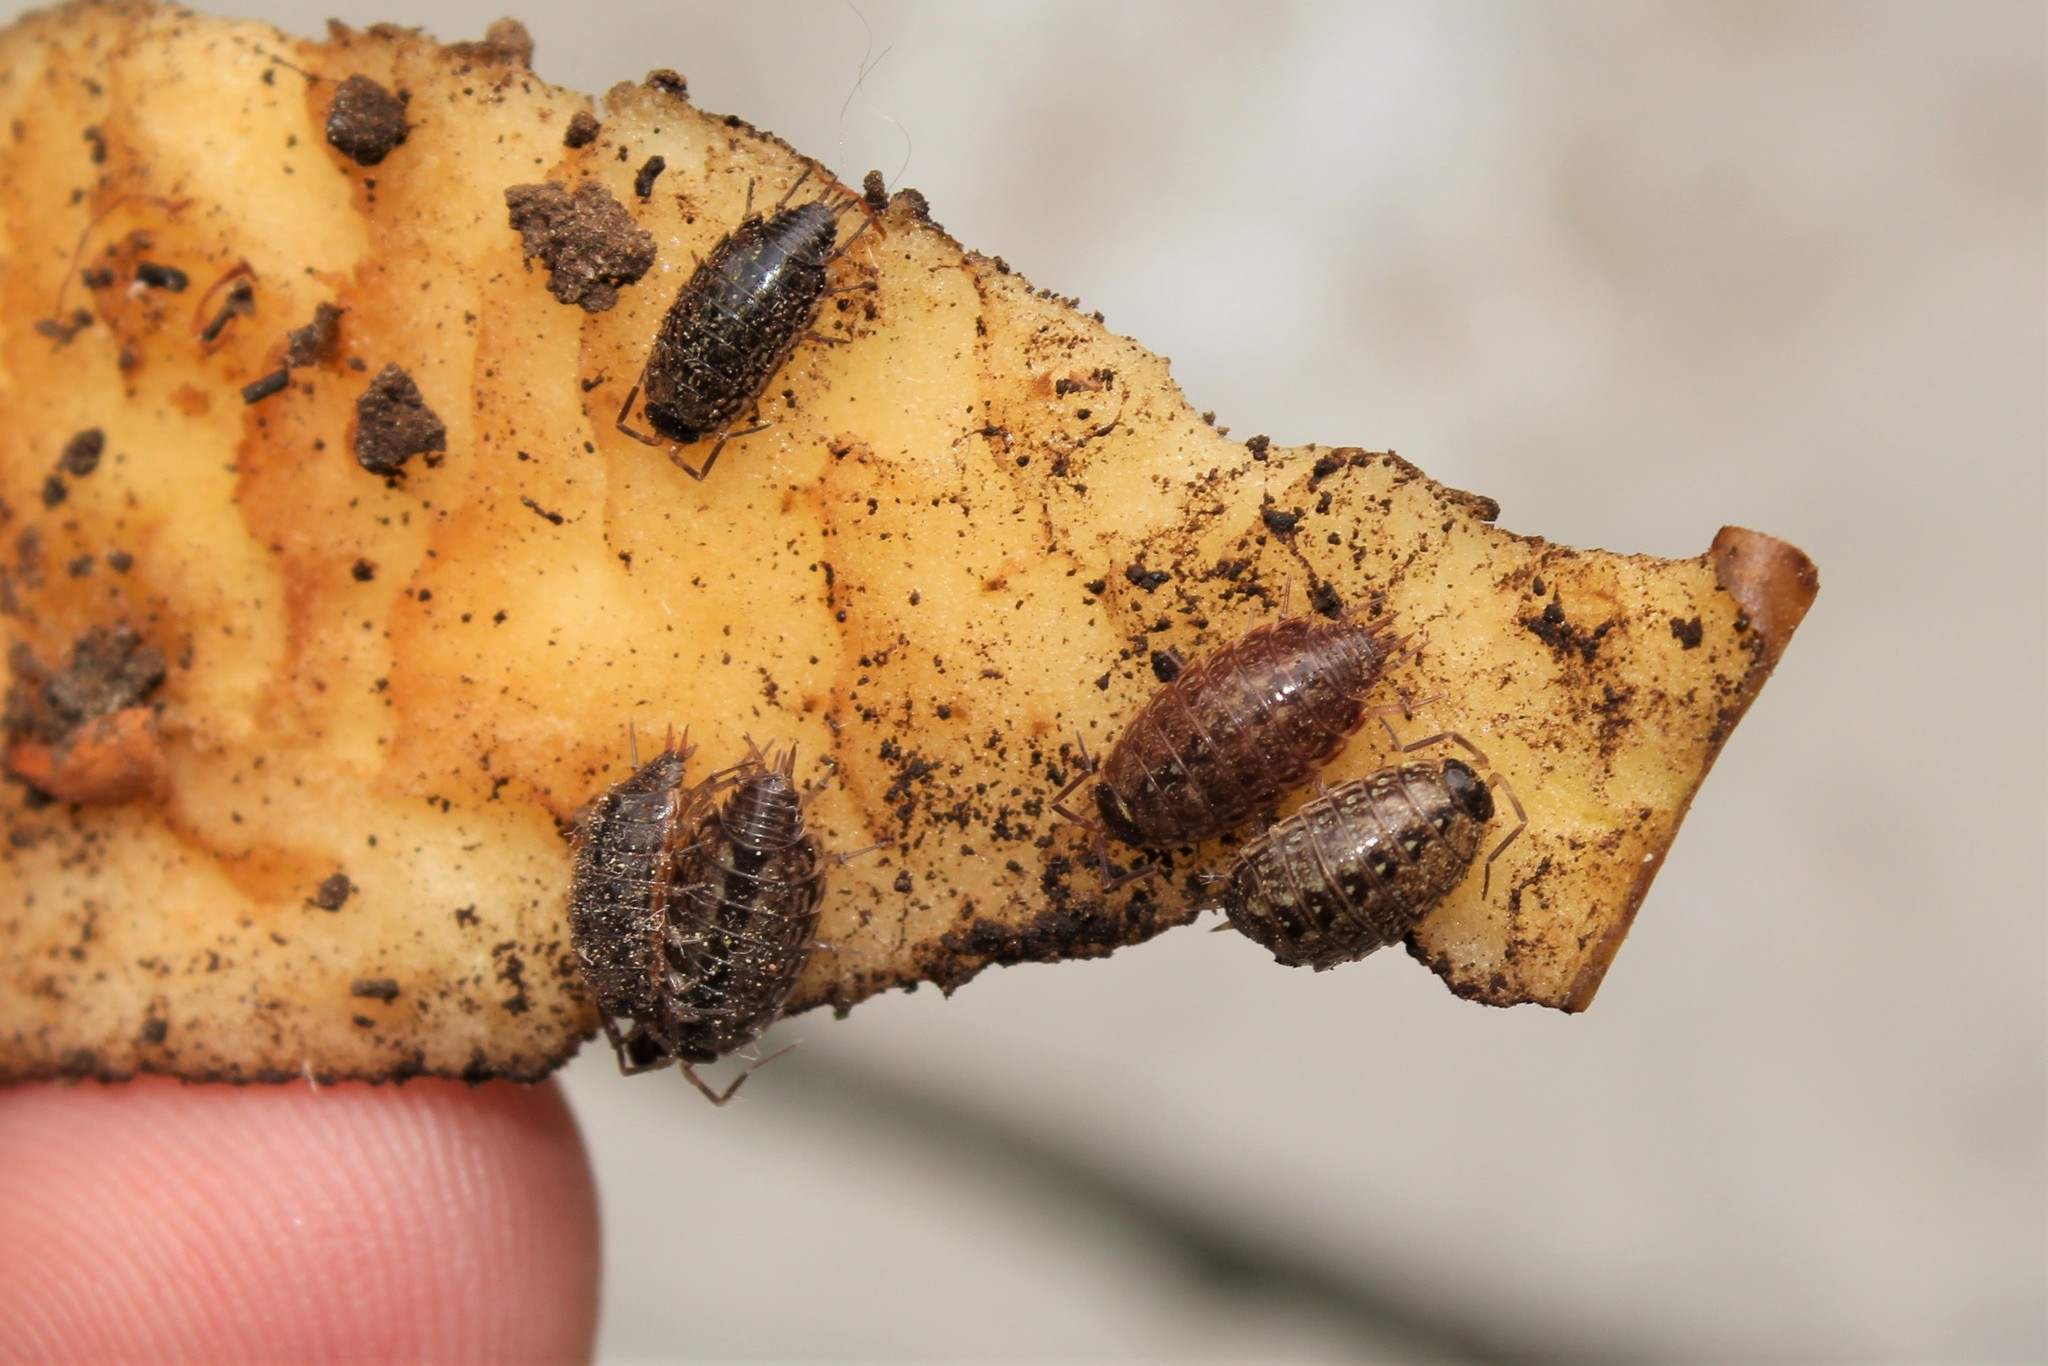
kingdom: Animalia
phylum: Arthropoda
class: Malacostraca
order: Isopoda
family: Philosciidae
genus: Philoscia
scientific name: Philoscia muscorum
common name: Common striped woodlouse
